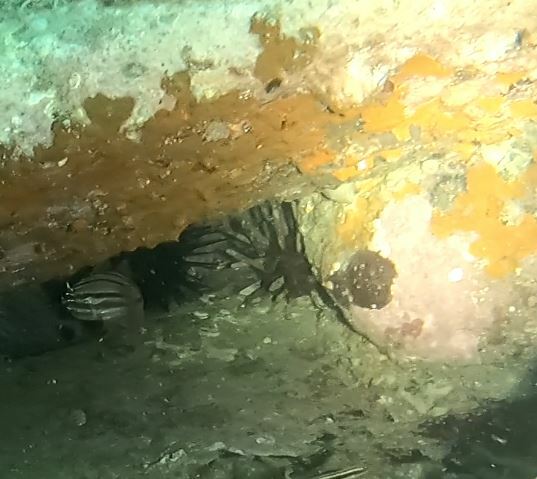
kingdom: Animalia
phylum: Echinodermata
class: Echinoidea
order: Cidaroida
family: Cidaridae
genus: Phyllacanthus
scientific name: Phyllacanthus parvispinus
